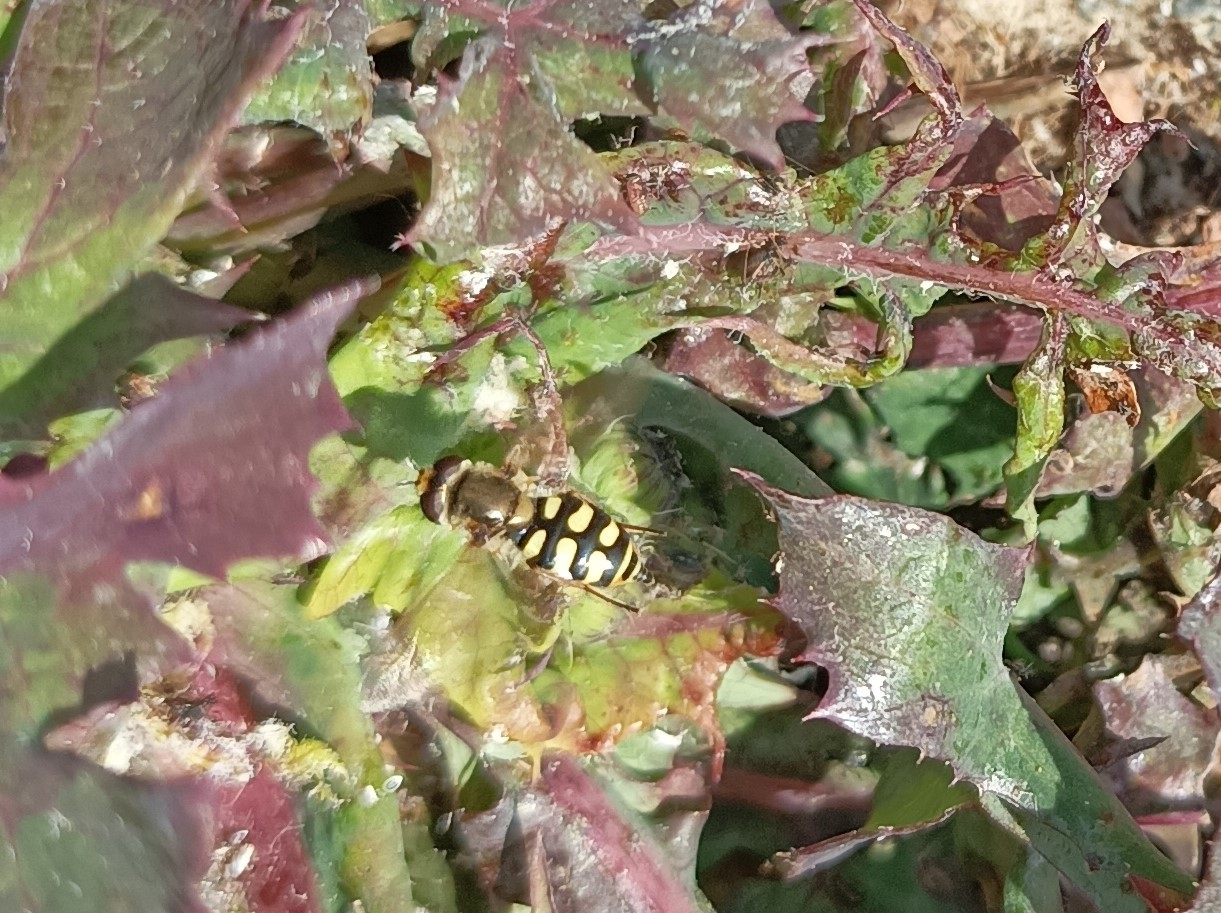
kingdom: Animalia
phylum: Arthropoda
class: Insecta
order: Diptera
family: Syrphidae
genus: Eupeodes
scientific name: Eupeodes corollae
